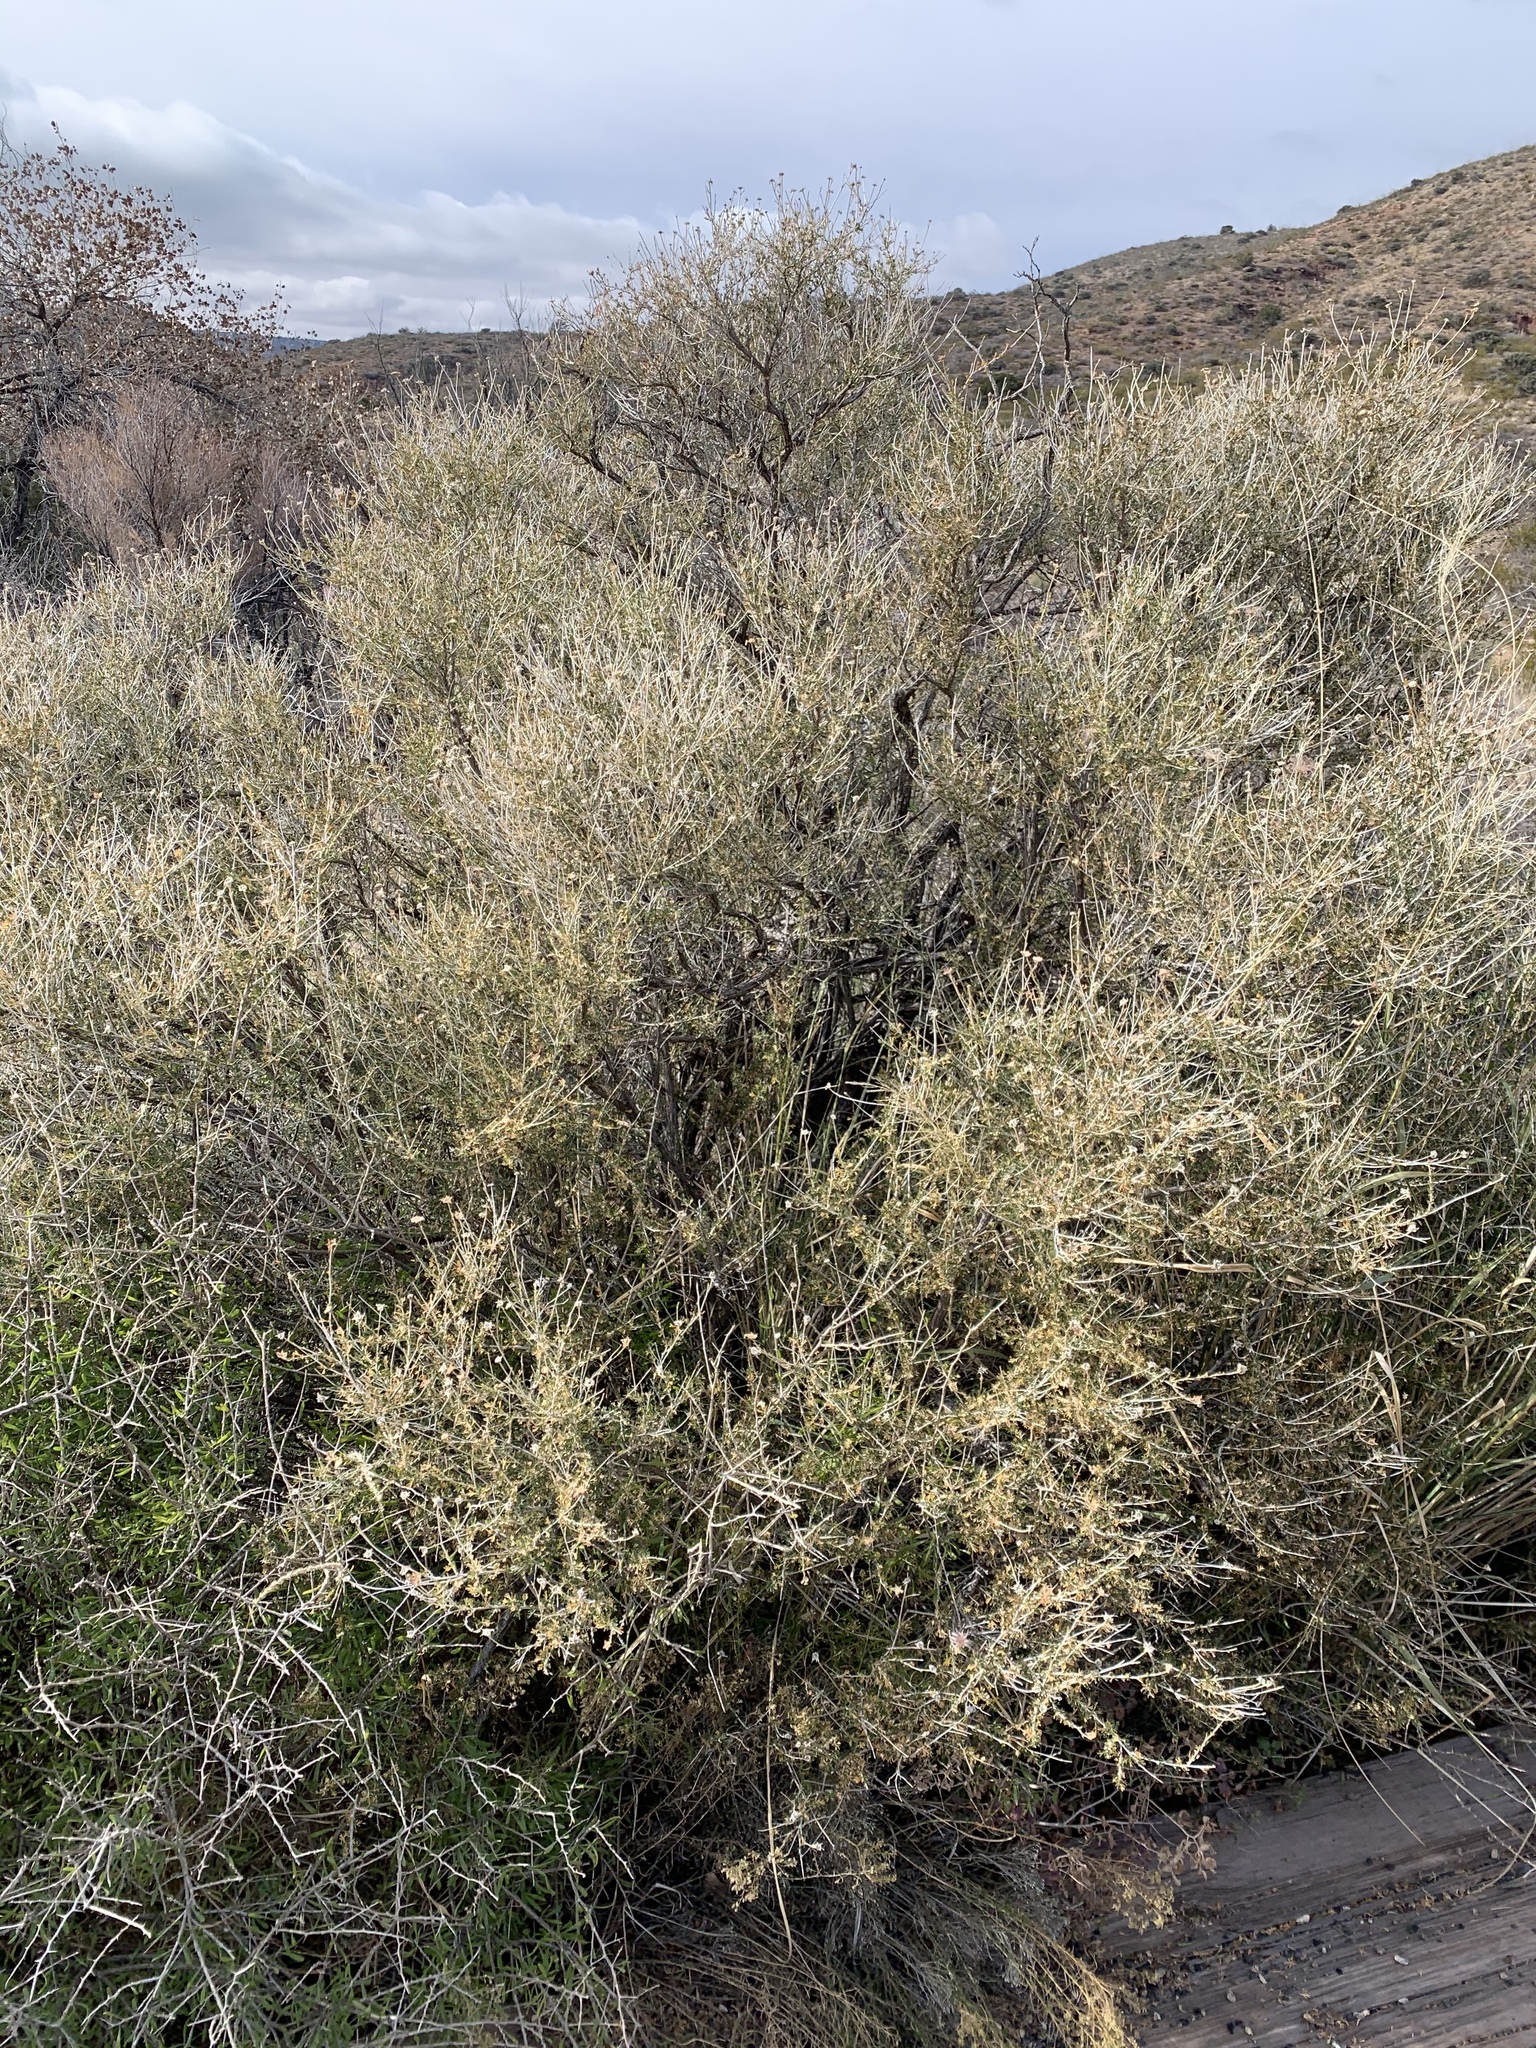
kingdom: Plantae
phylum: Tracheophyta
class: Magnoliopsida
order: Rosales
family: Rosaceae
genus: Fallugia
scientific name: Fallugia paradoxa
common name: Apache-plume
